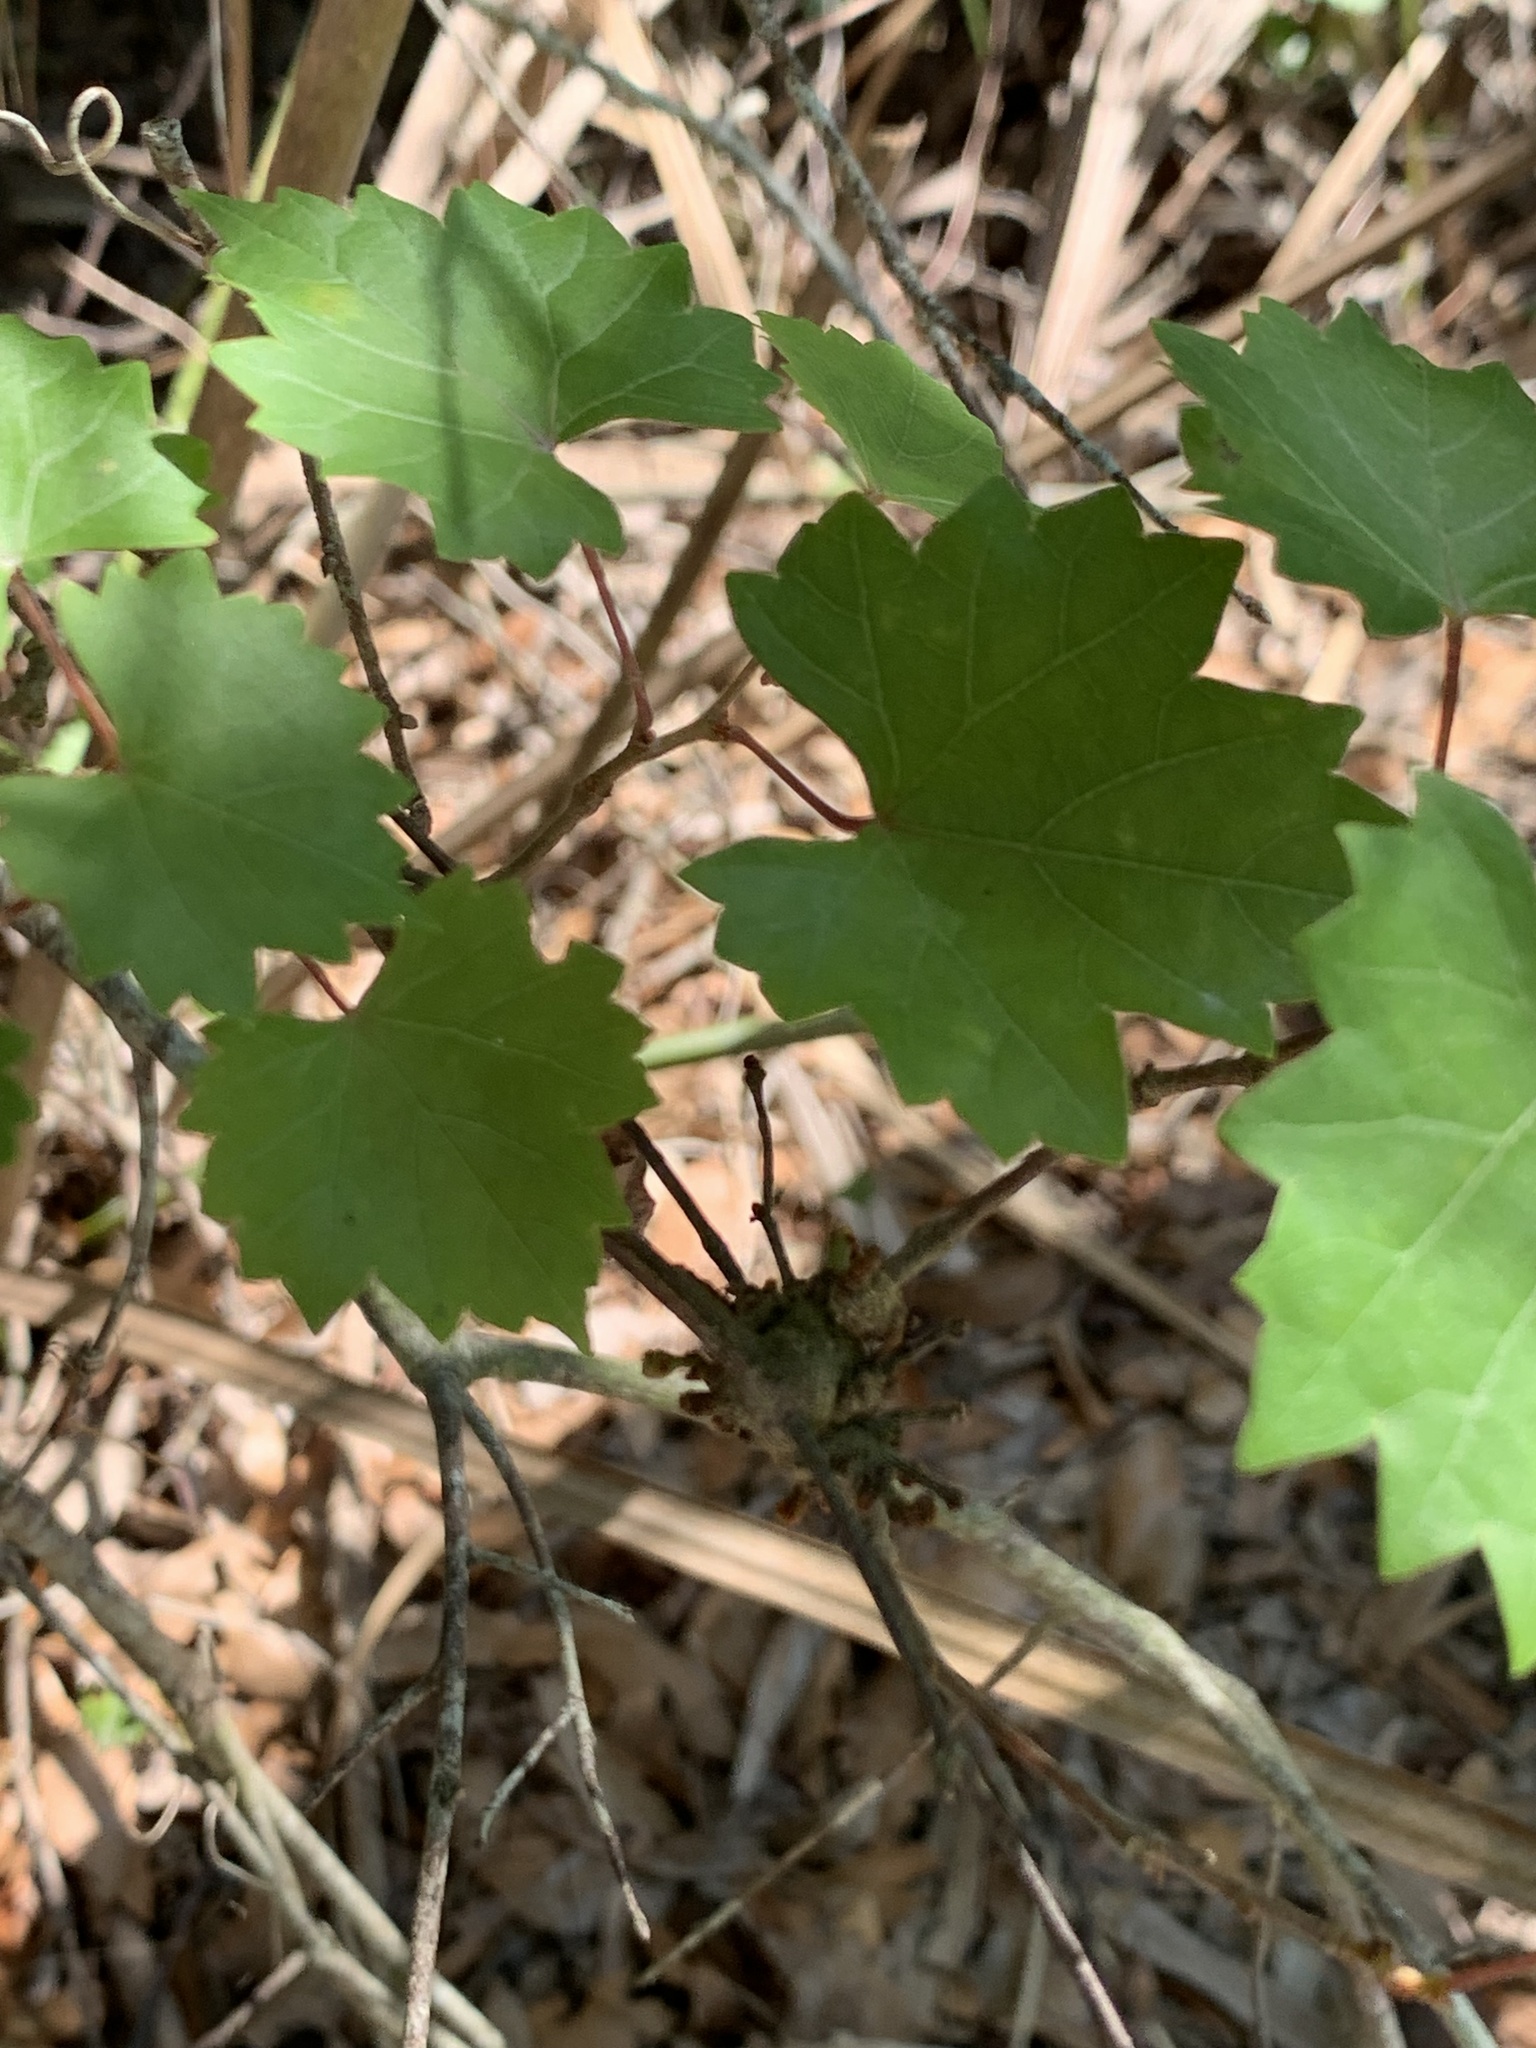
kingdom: Plantae
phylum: Tracheophyta
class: Magnoliopsida
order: Vitales
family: Vitaceae
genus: Vitis
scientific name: Vitis rotundifolia
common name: Muscadine grape
